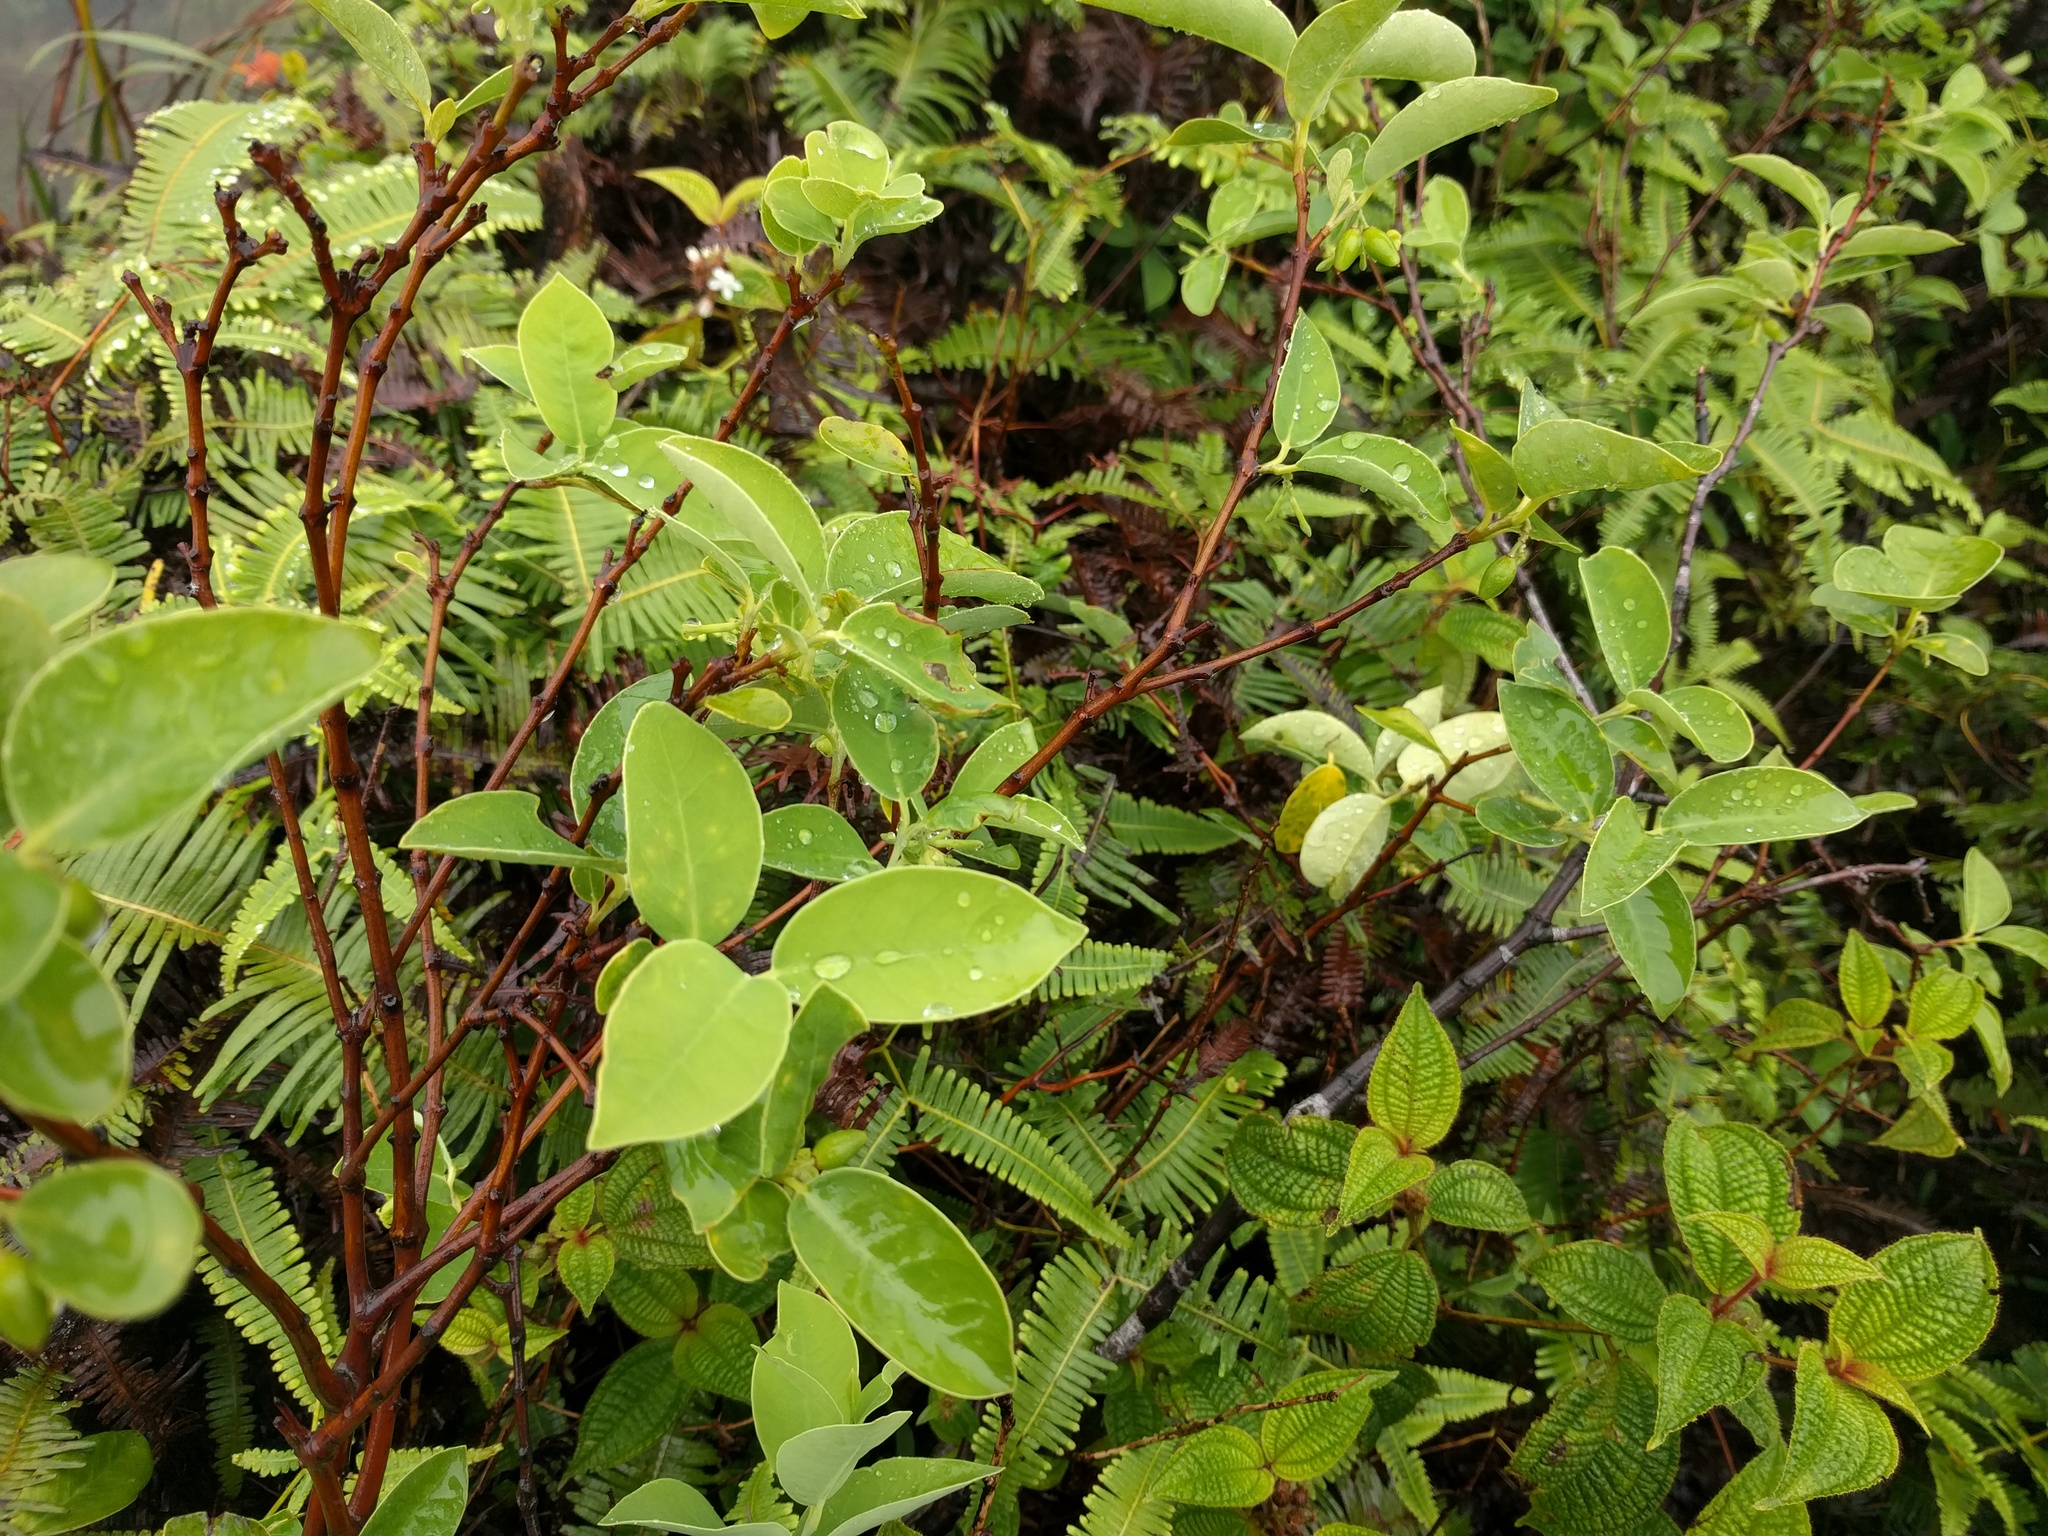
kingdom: Plantae
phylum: Tracheophyta
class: Magnoliopsida
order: Malvales
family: Thymelaeaceae
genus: Wikstroemia
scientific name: Wikstroemia oahuensis
